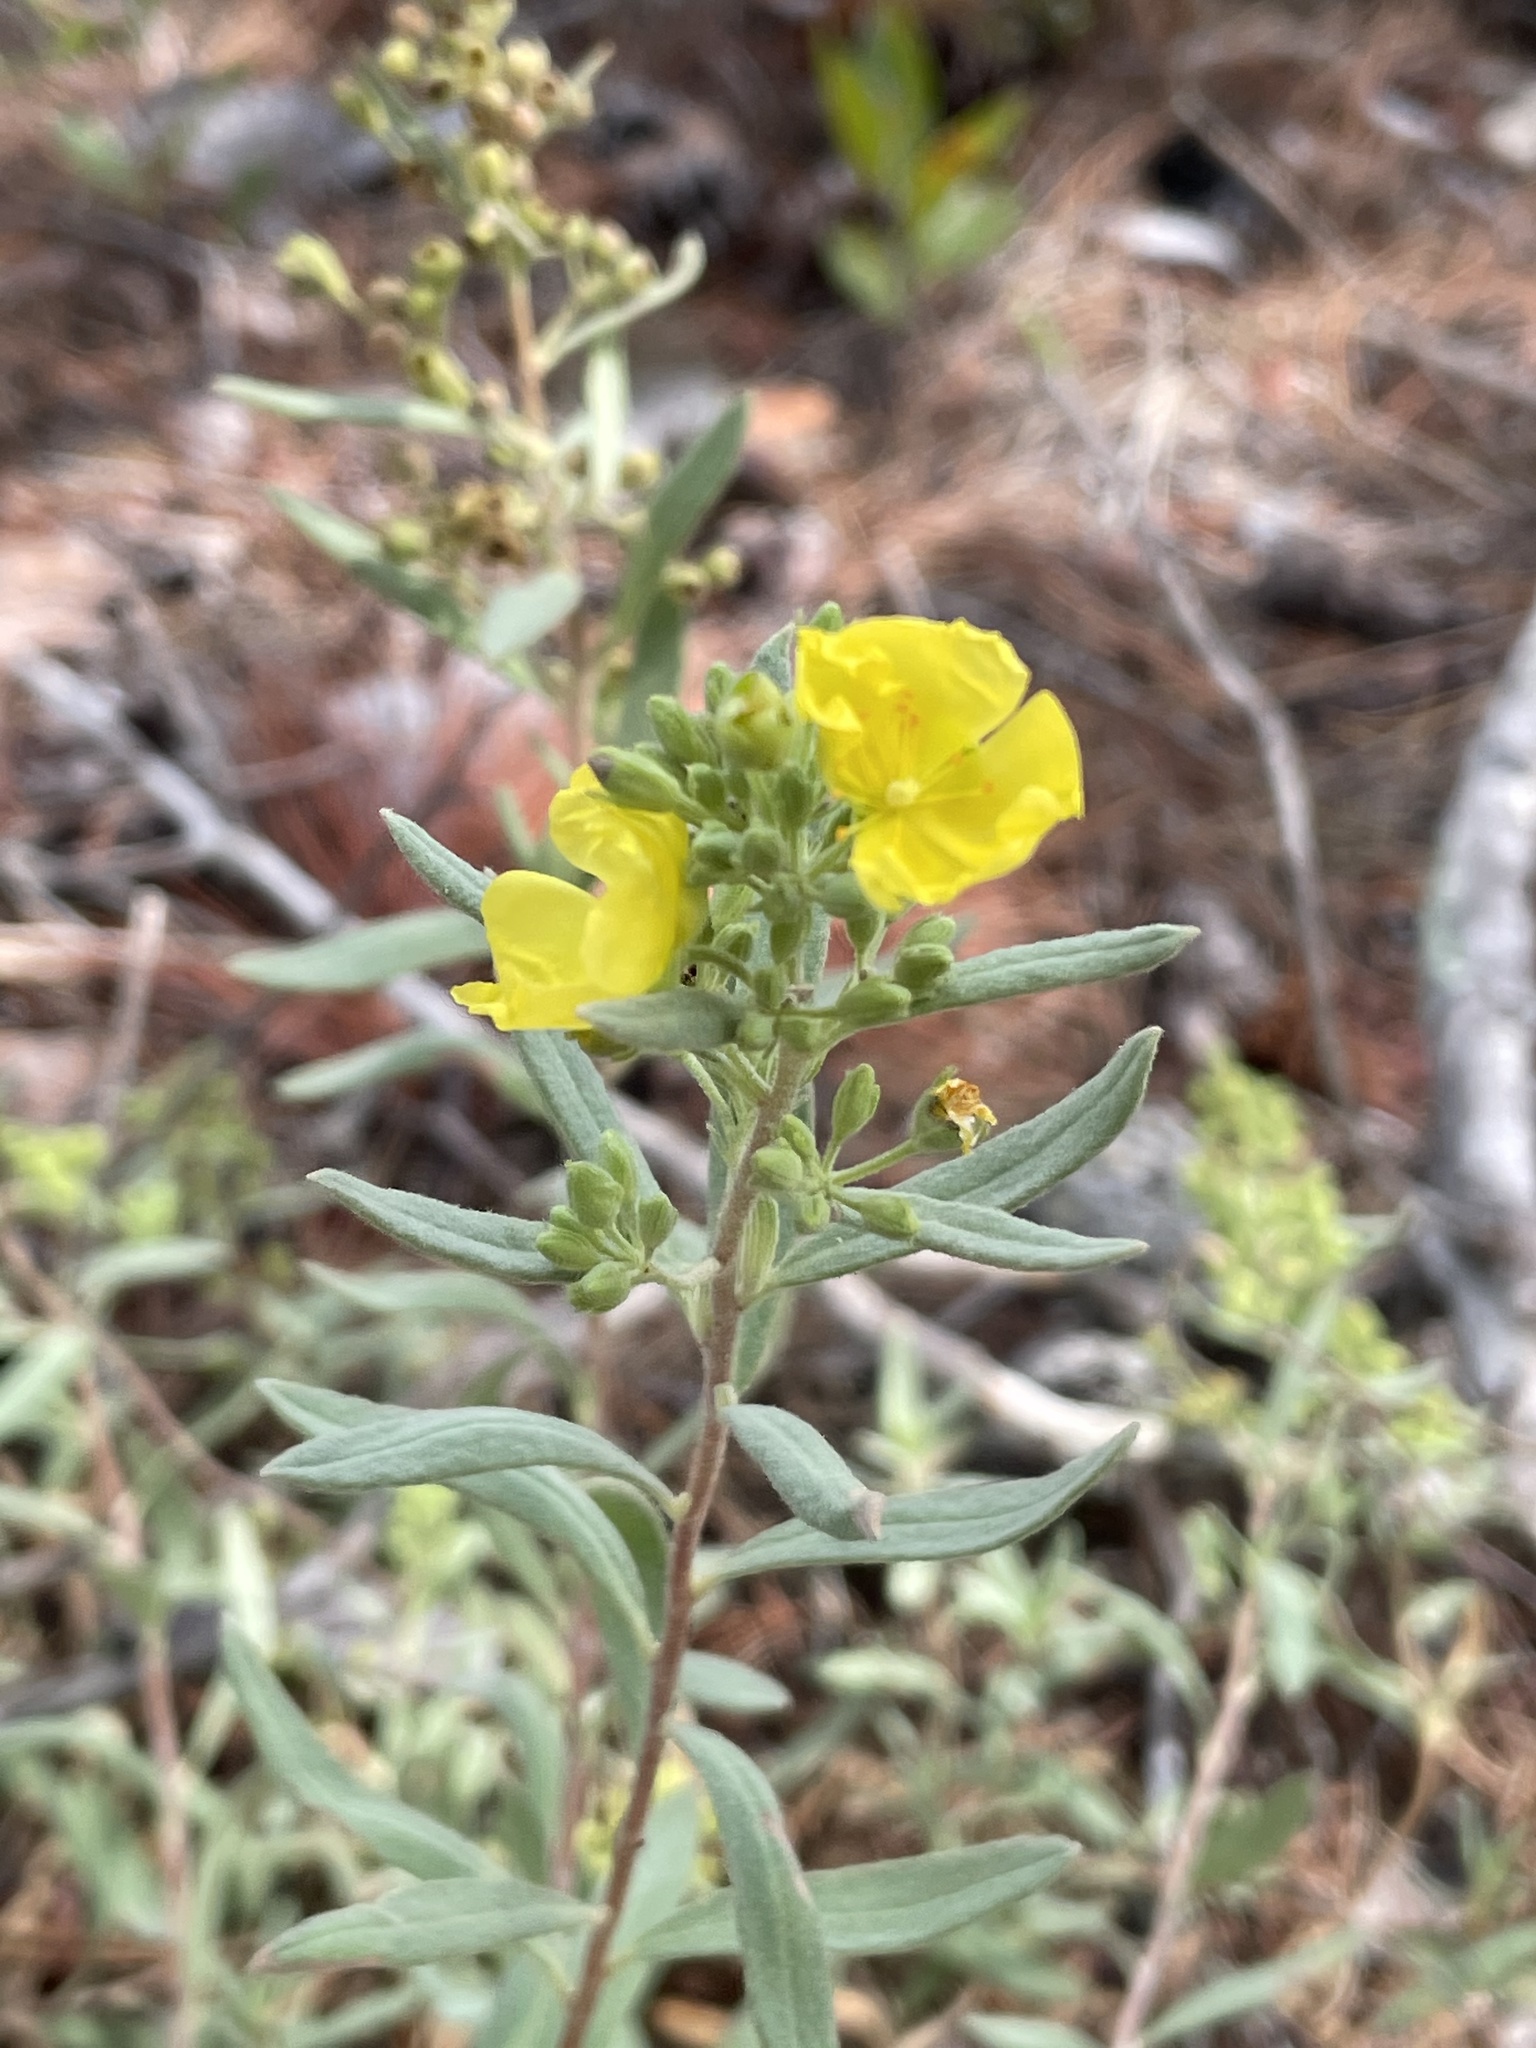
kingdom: Plantae
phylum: Tracheophyta
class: Magnoliopsida
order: Malvales
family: Cistaceae
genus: Crocanthemum
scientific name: Crocanthemum nashii
